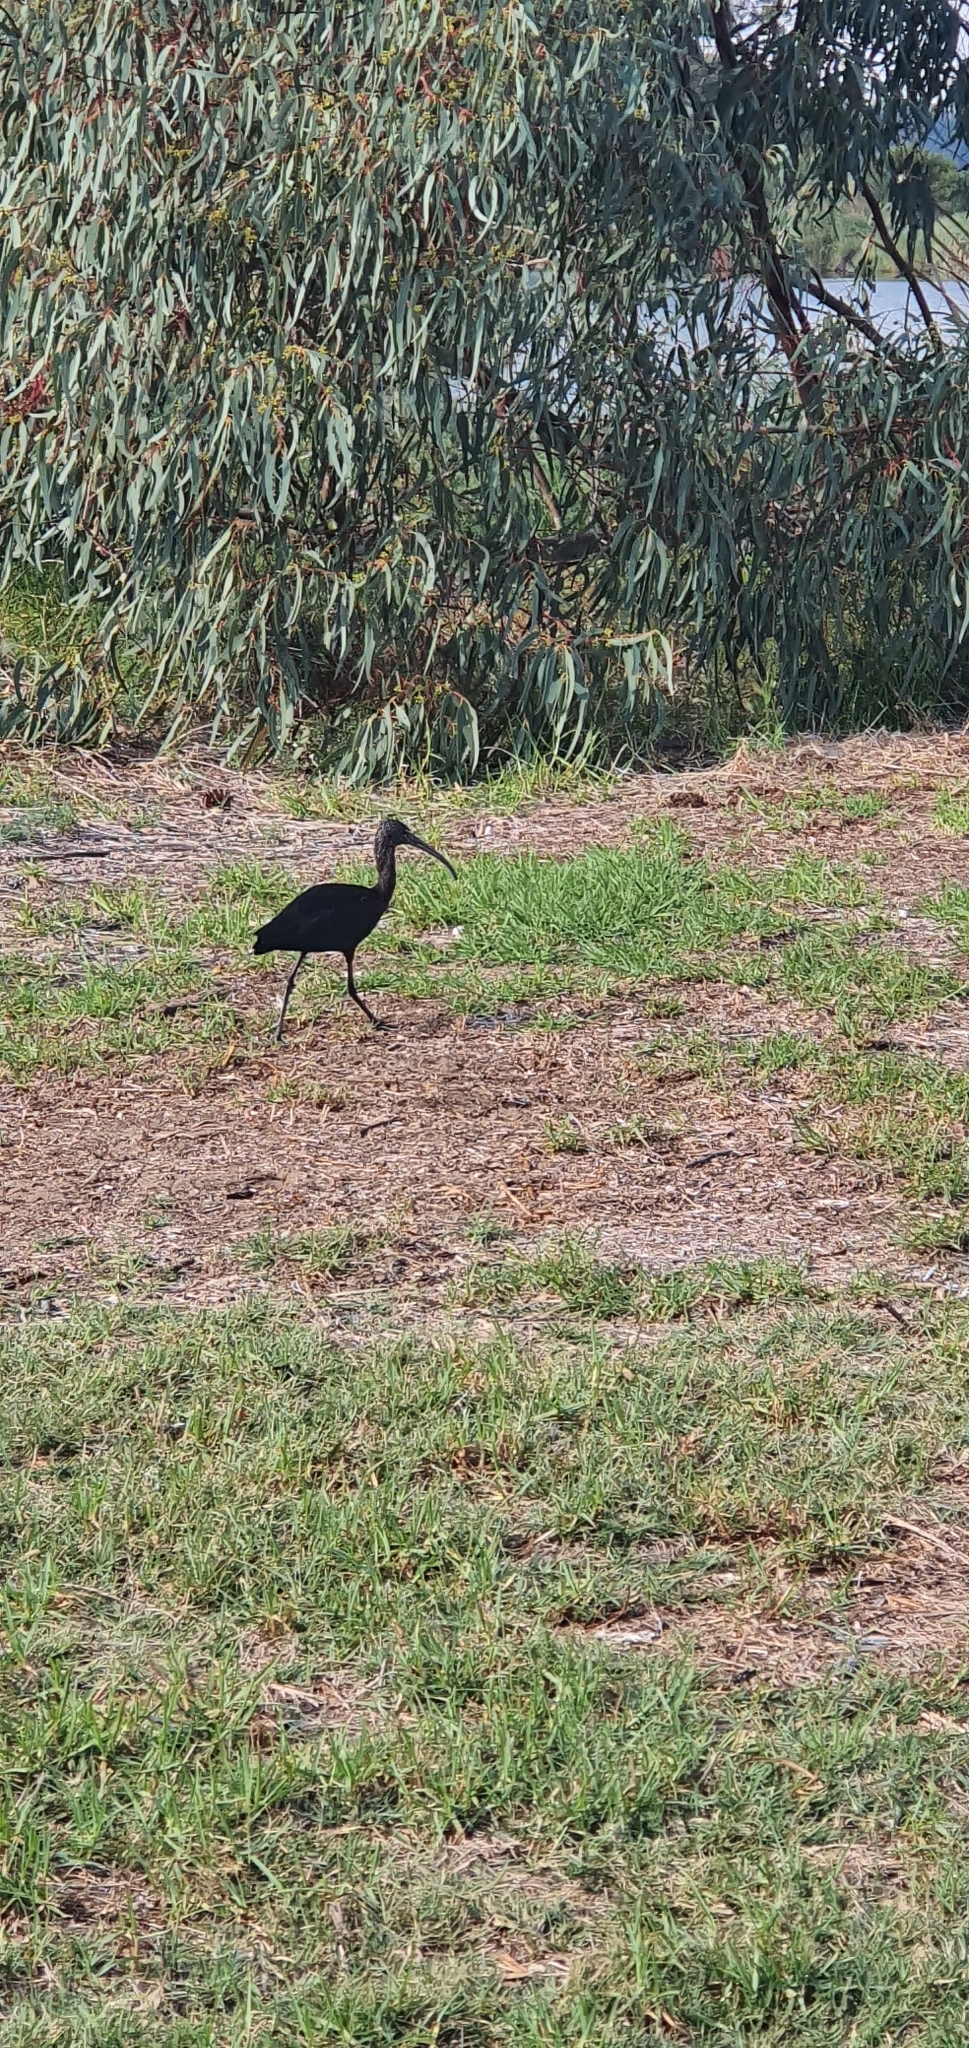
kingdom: Animalia
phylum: Chordata
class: Aves
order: Pelecaniformes
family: Threskiornithidae
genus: Plegadis
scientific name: Plegadis falcinellus
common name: Glossy ibis
